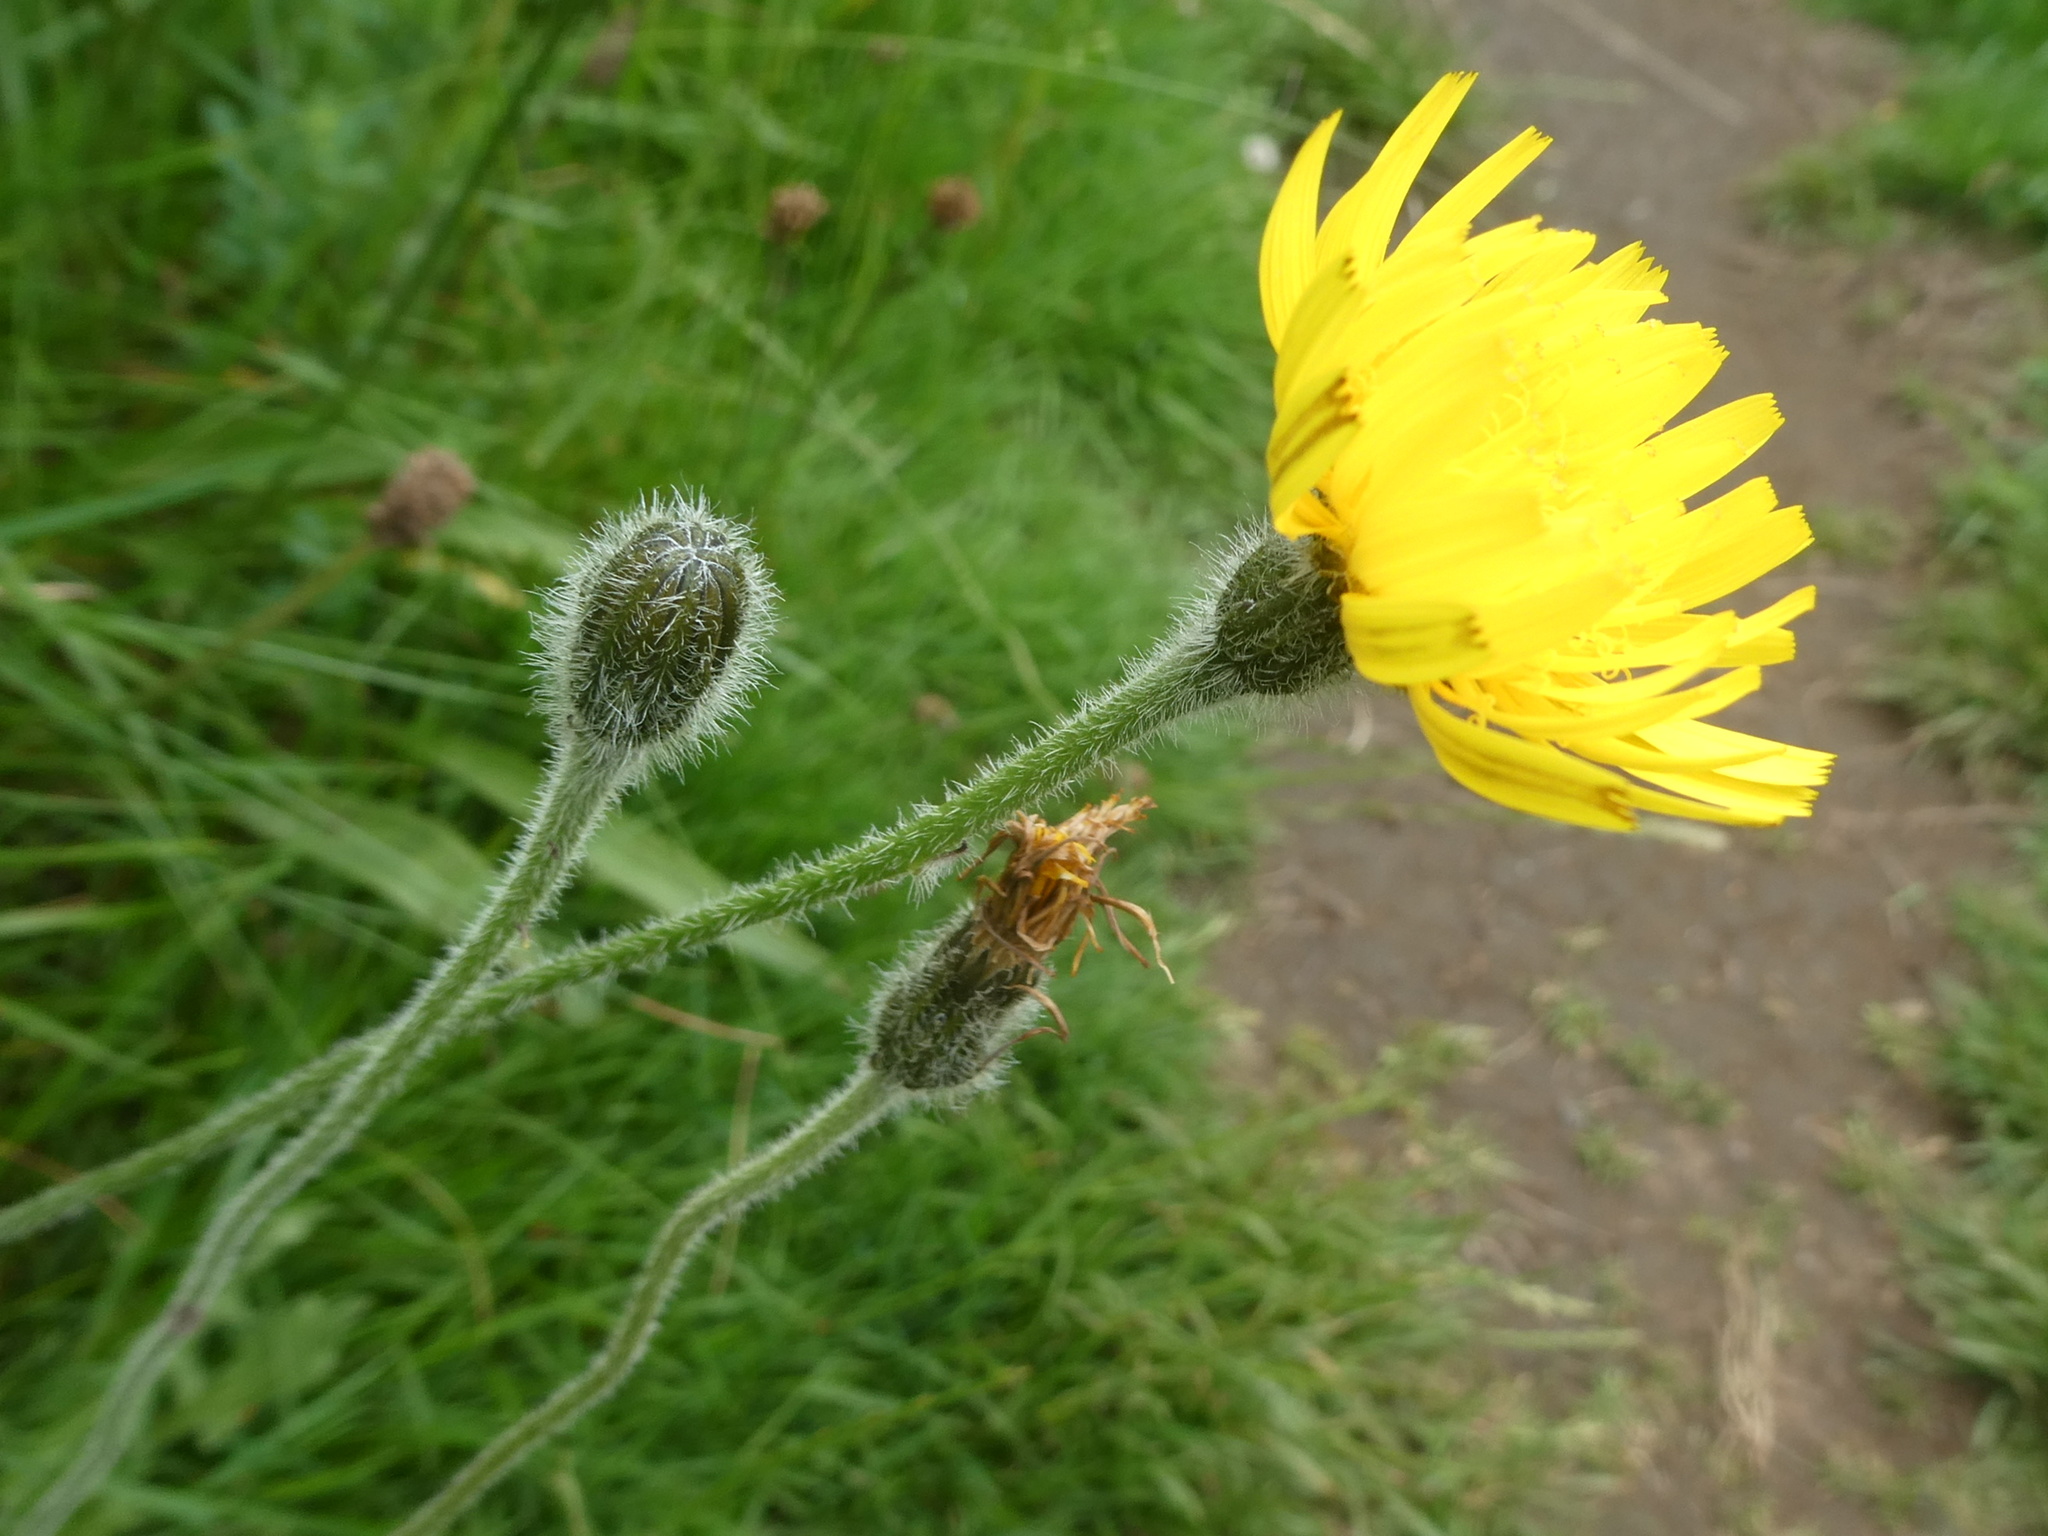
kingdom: Plantae
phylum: Tracheophyta
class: Magnoliopsida
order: Asterales
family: Asteraceae
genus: Leontodon
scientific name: Leontodon hispidus
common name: Rough hawkbit
